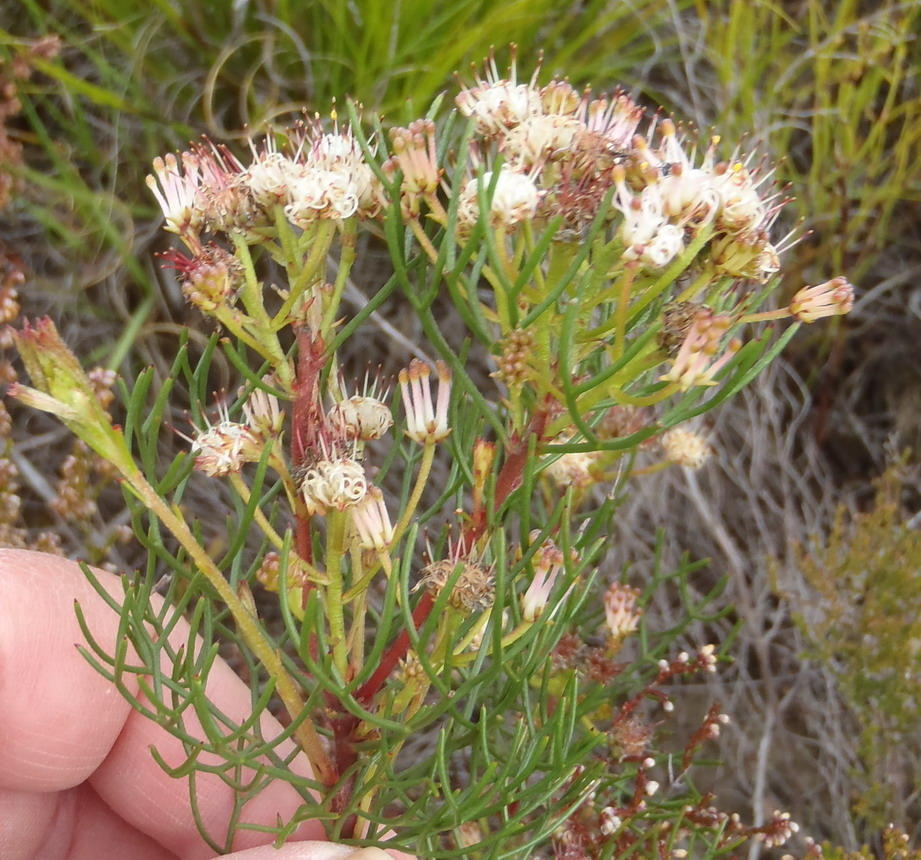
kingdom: Plantae
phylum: Tracheophyta
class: Magnoliopsida
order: Proteales
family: Proteaceae
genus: Serruria
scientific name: Serruria fasciflora
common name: Common pin spiderhead
